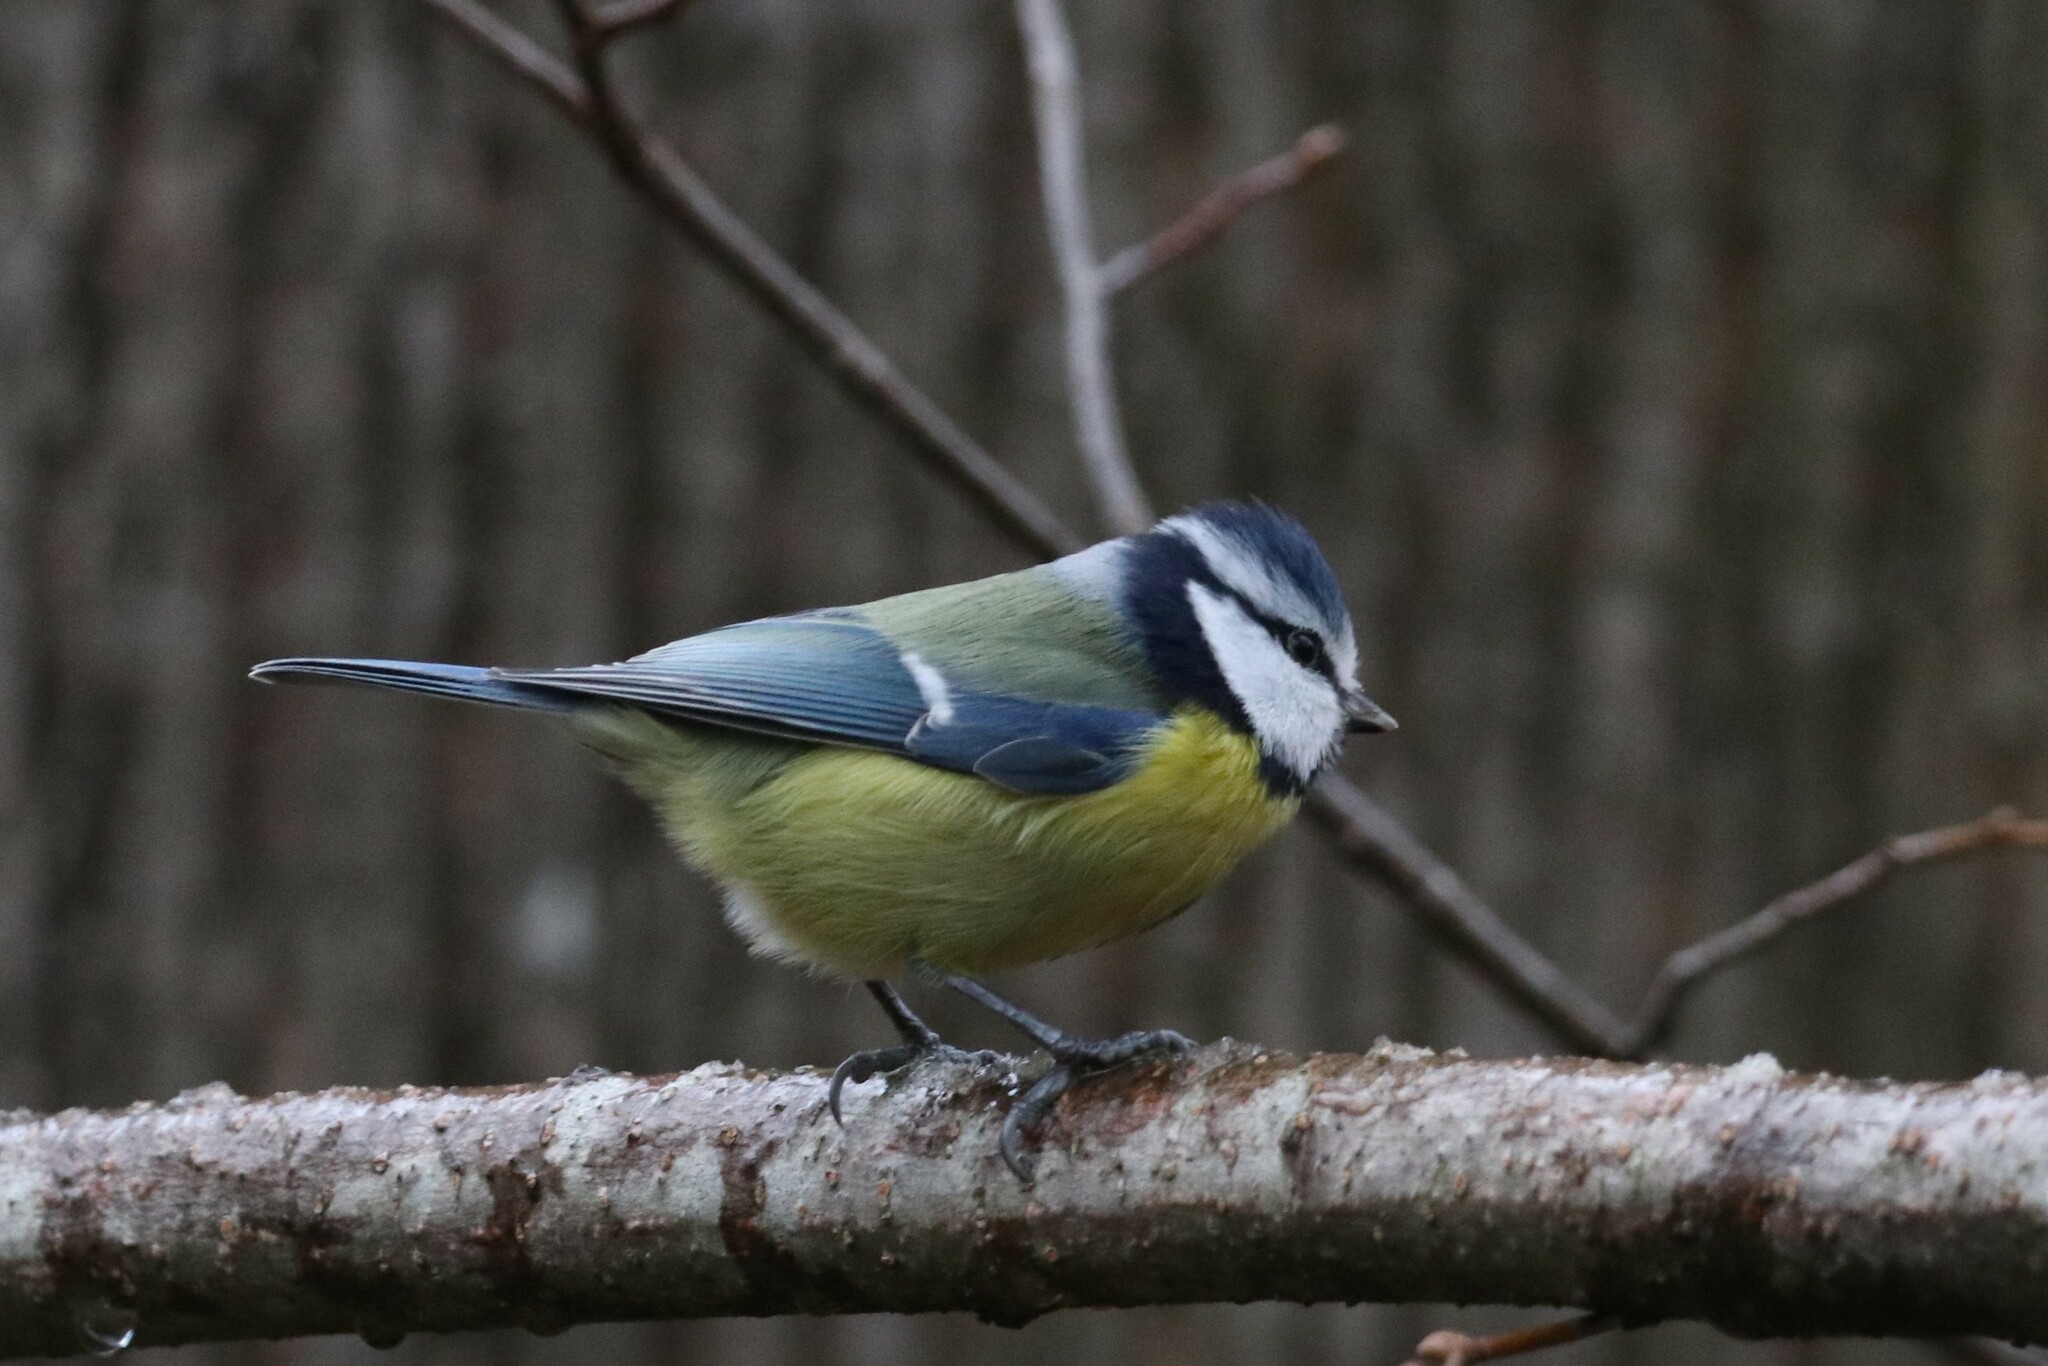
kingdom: Animalia
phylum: Chordata
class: Aves
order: Passeriformes
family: Paridae
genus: Cyanistes
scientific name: Cyanistes caeruleus
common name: Eurasian blue tit
